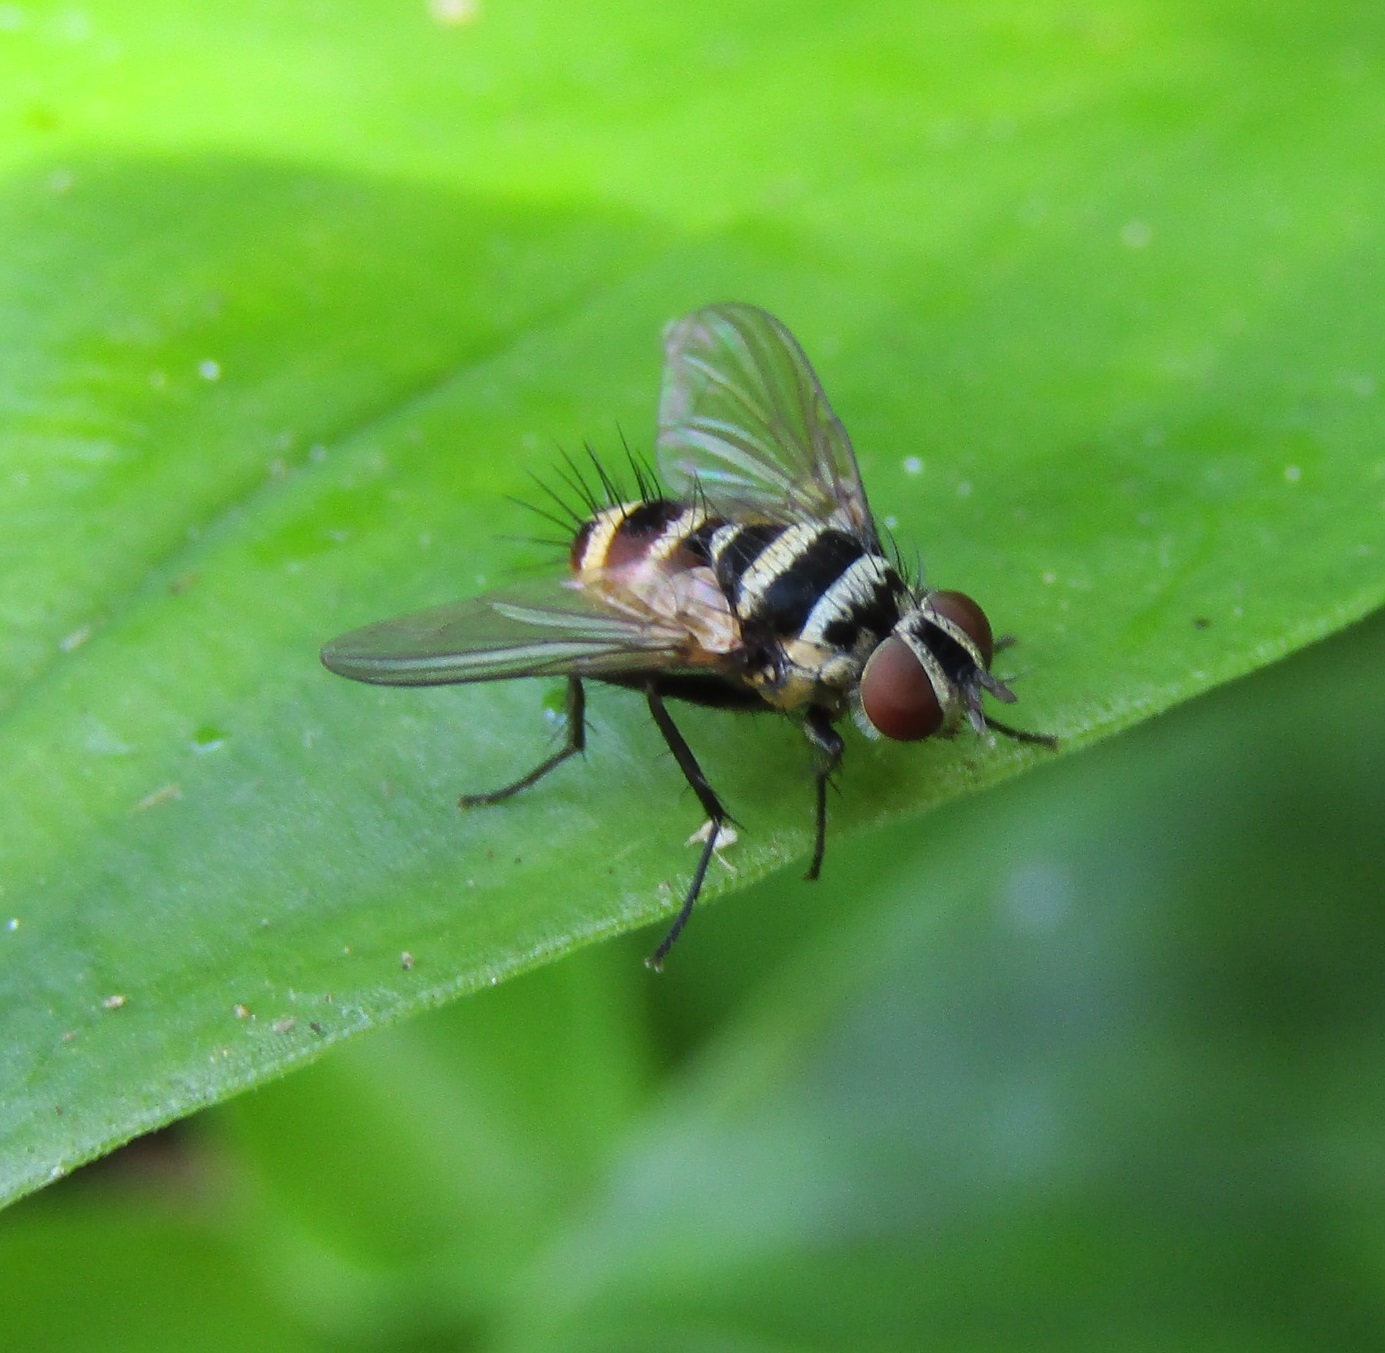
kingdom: Animalia
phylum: Arthropoda
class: Insecta
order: Diptera
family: Tachinidae
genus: Trigonospila
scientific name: Trigonospila brevifacies
